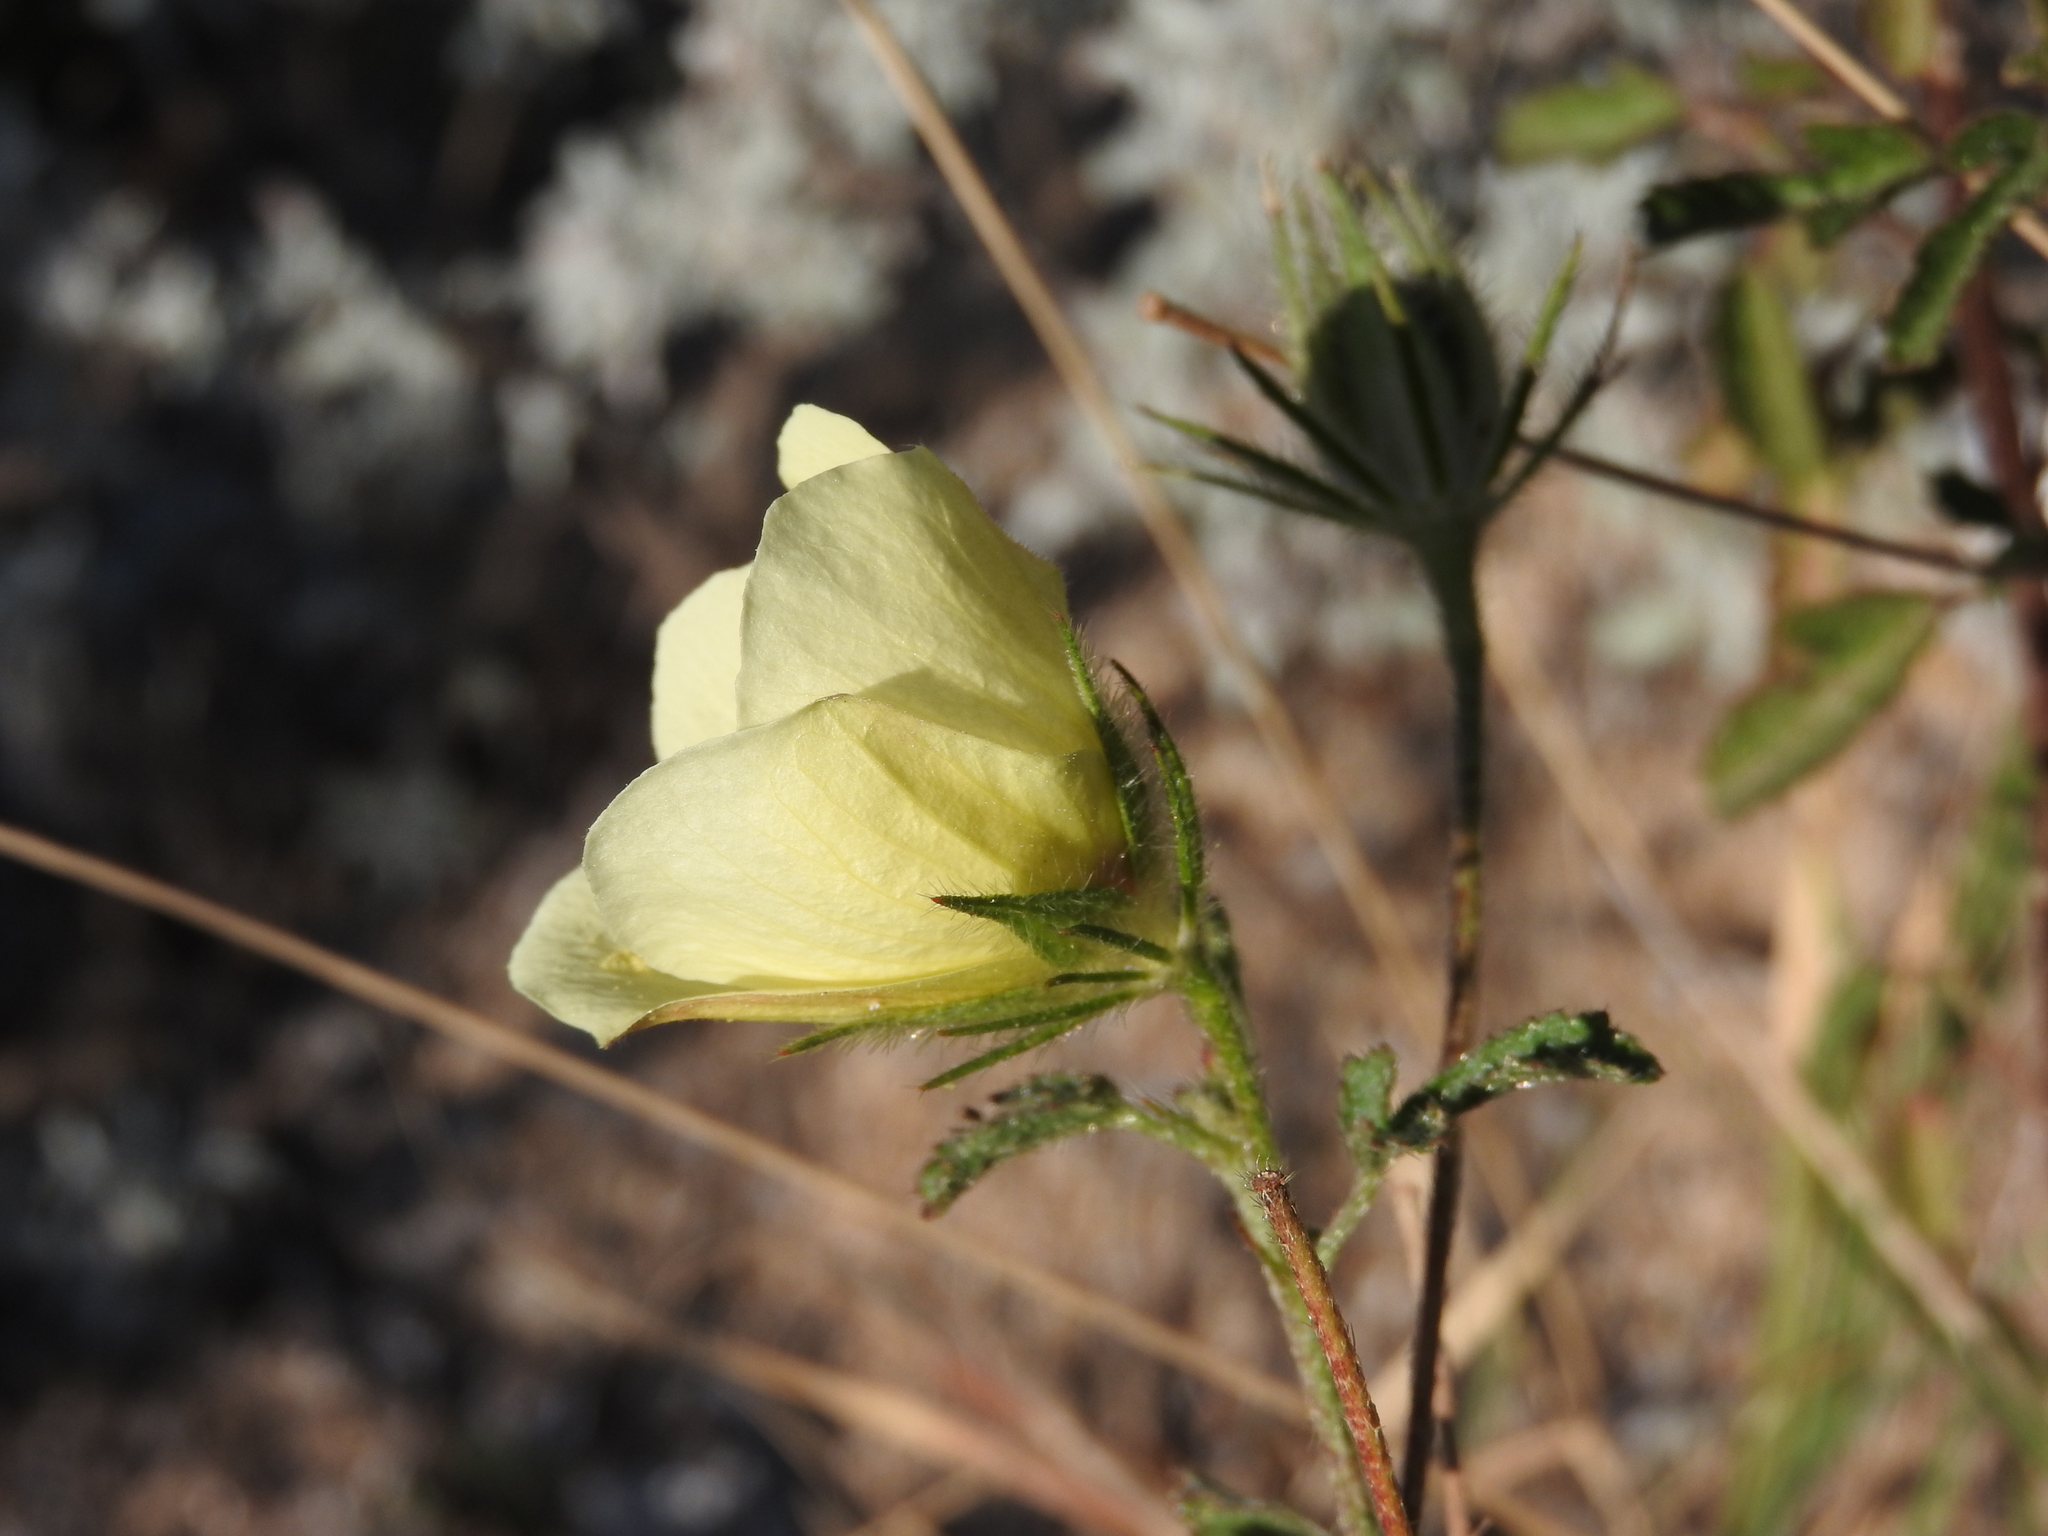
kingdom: Plantae
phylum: Tracheophyta
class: Magnoliopsida
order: Malvales
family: Malvaceae
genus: Hibiscus
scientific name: Hibiscus coulteri
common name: Desert rose-mallow
